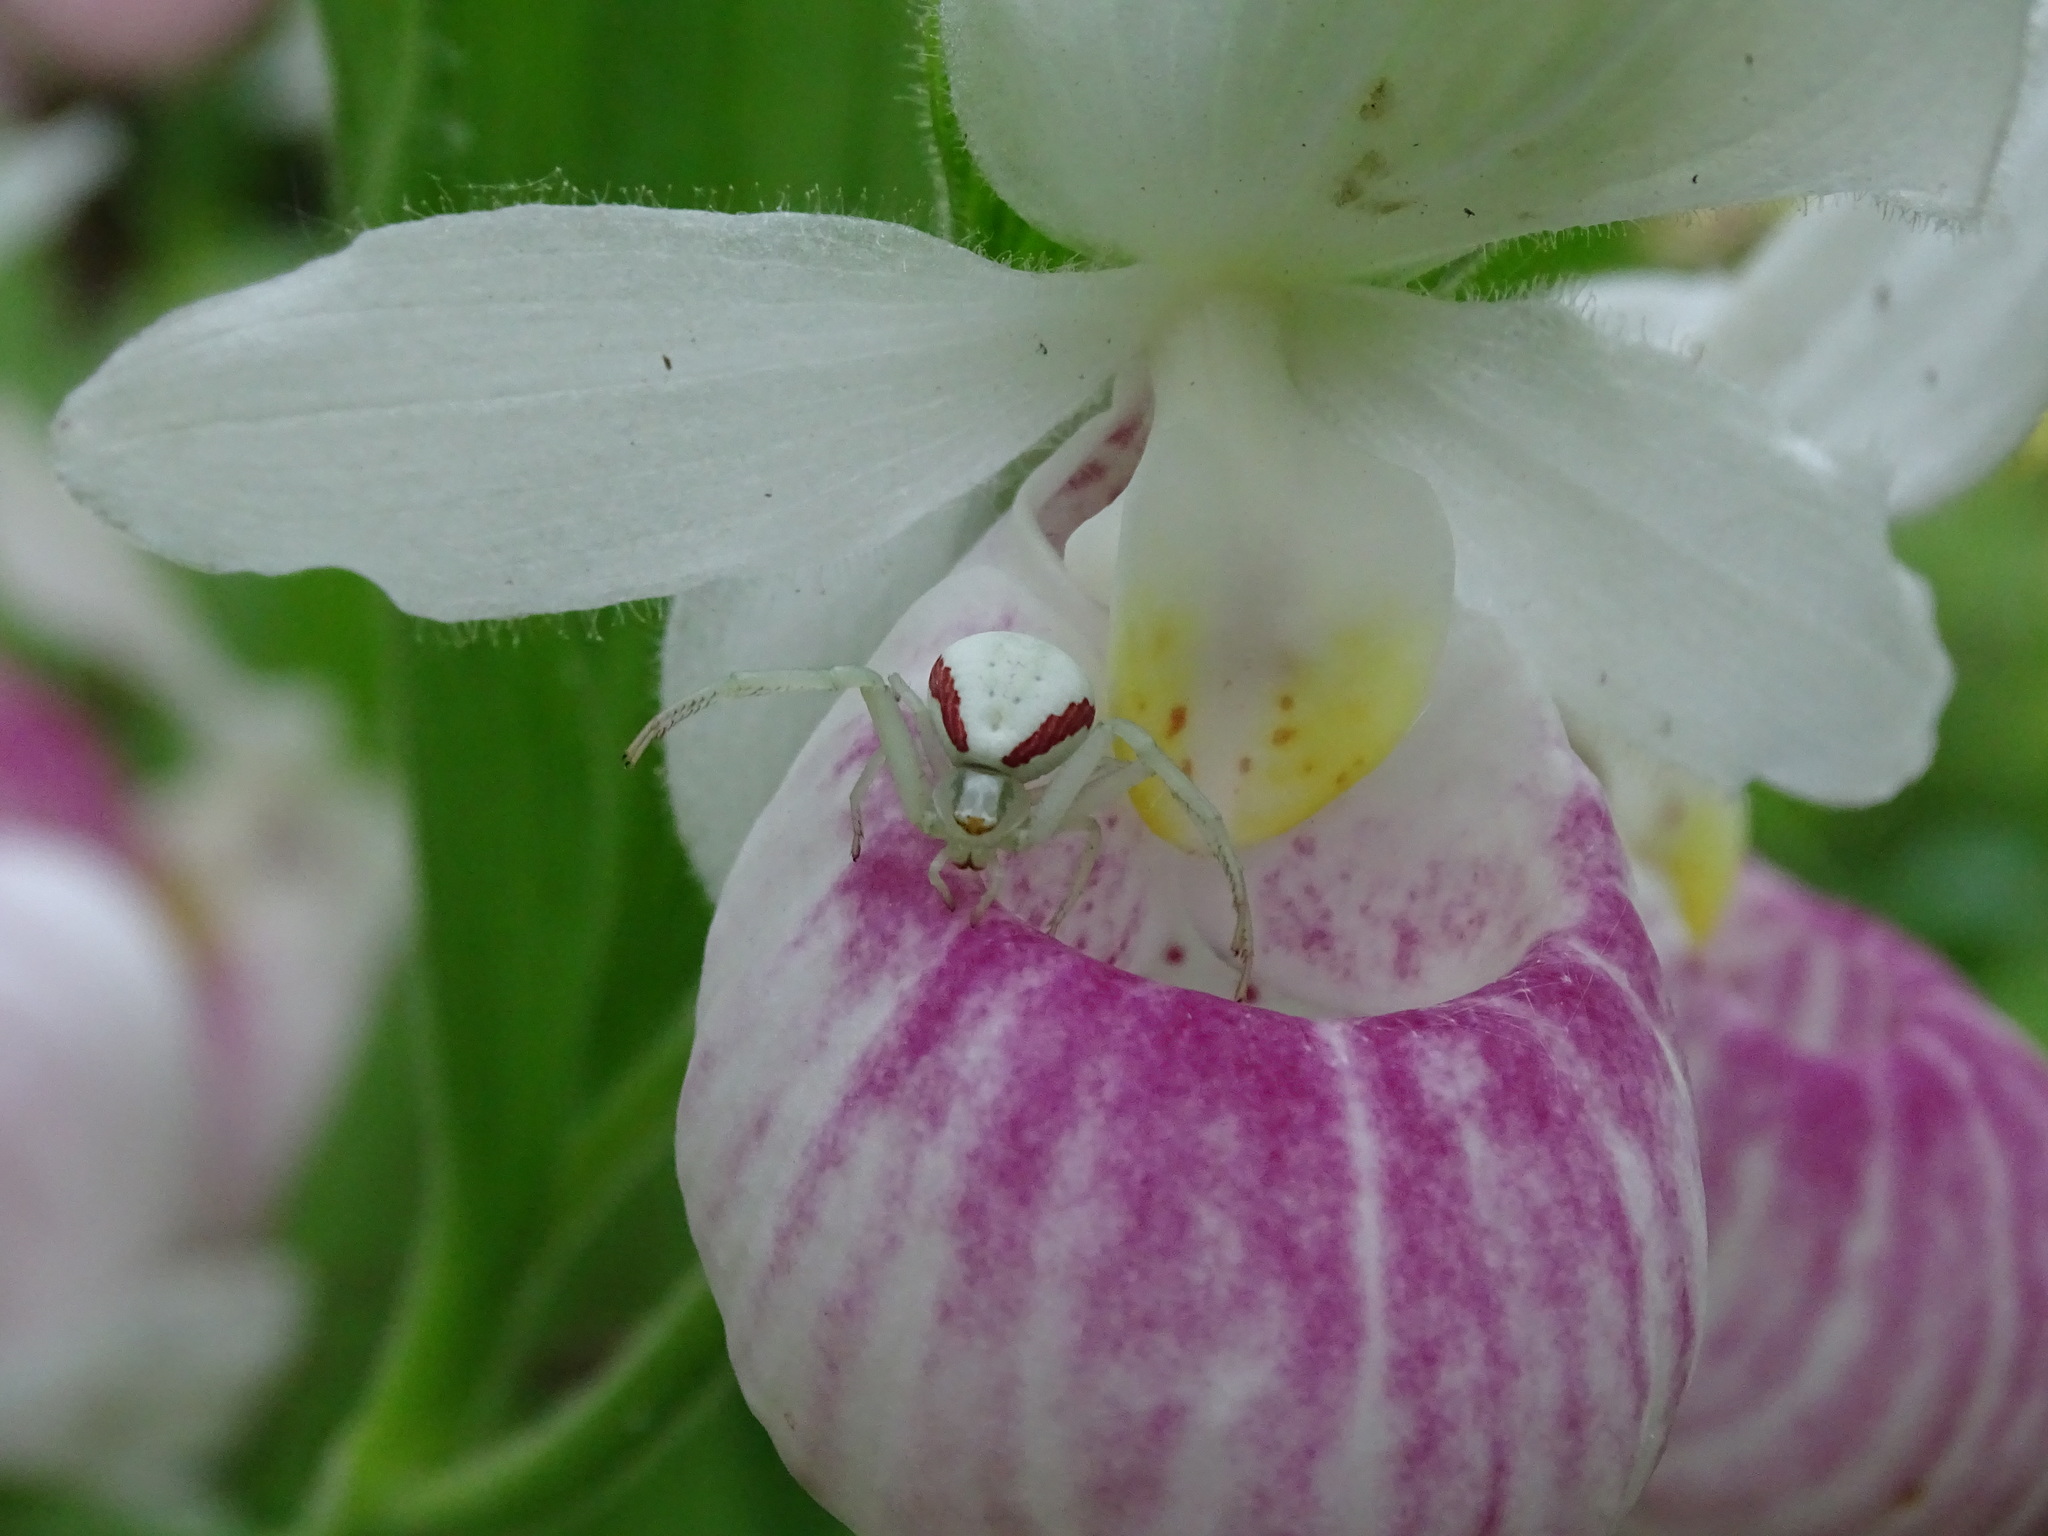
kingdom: Animalia
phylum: Arthropoda
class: Arachnida
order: Araneae
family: Thomisidae
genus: Misumena
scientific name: Misumena vatia
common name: Goldenrod crab spider
